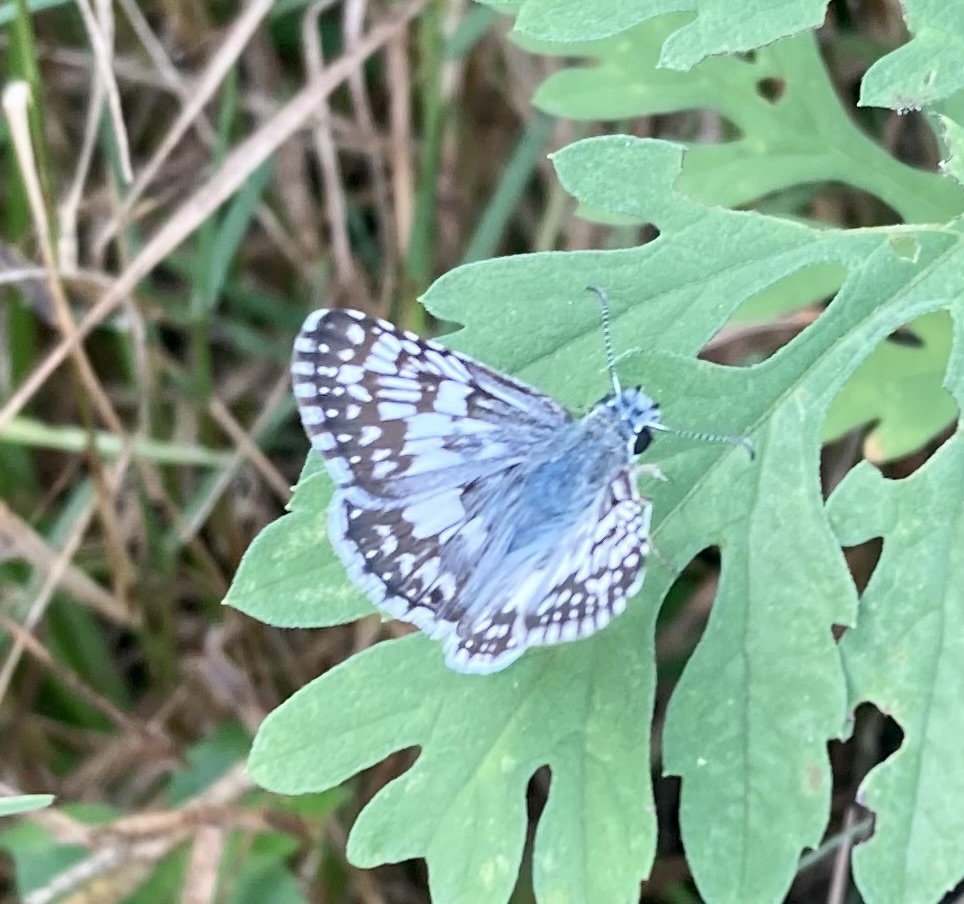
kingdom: Animalia
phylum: Arthropoda
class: Insecta
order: Lepidoptera
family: Hesperiidae
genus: Burnsius
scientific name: Burnsius albezens
